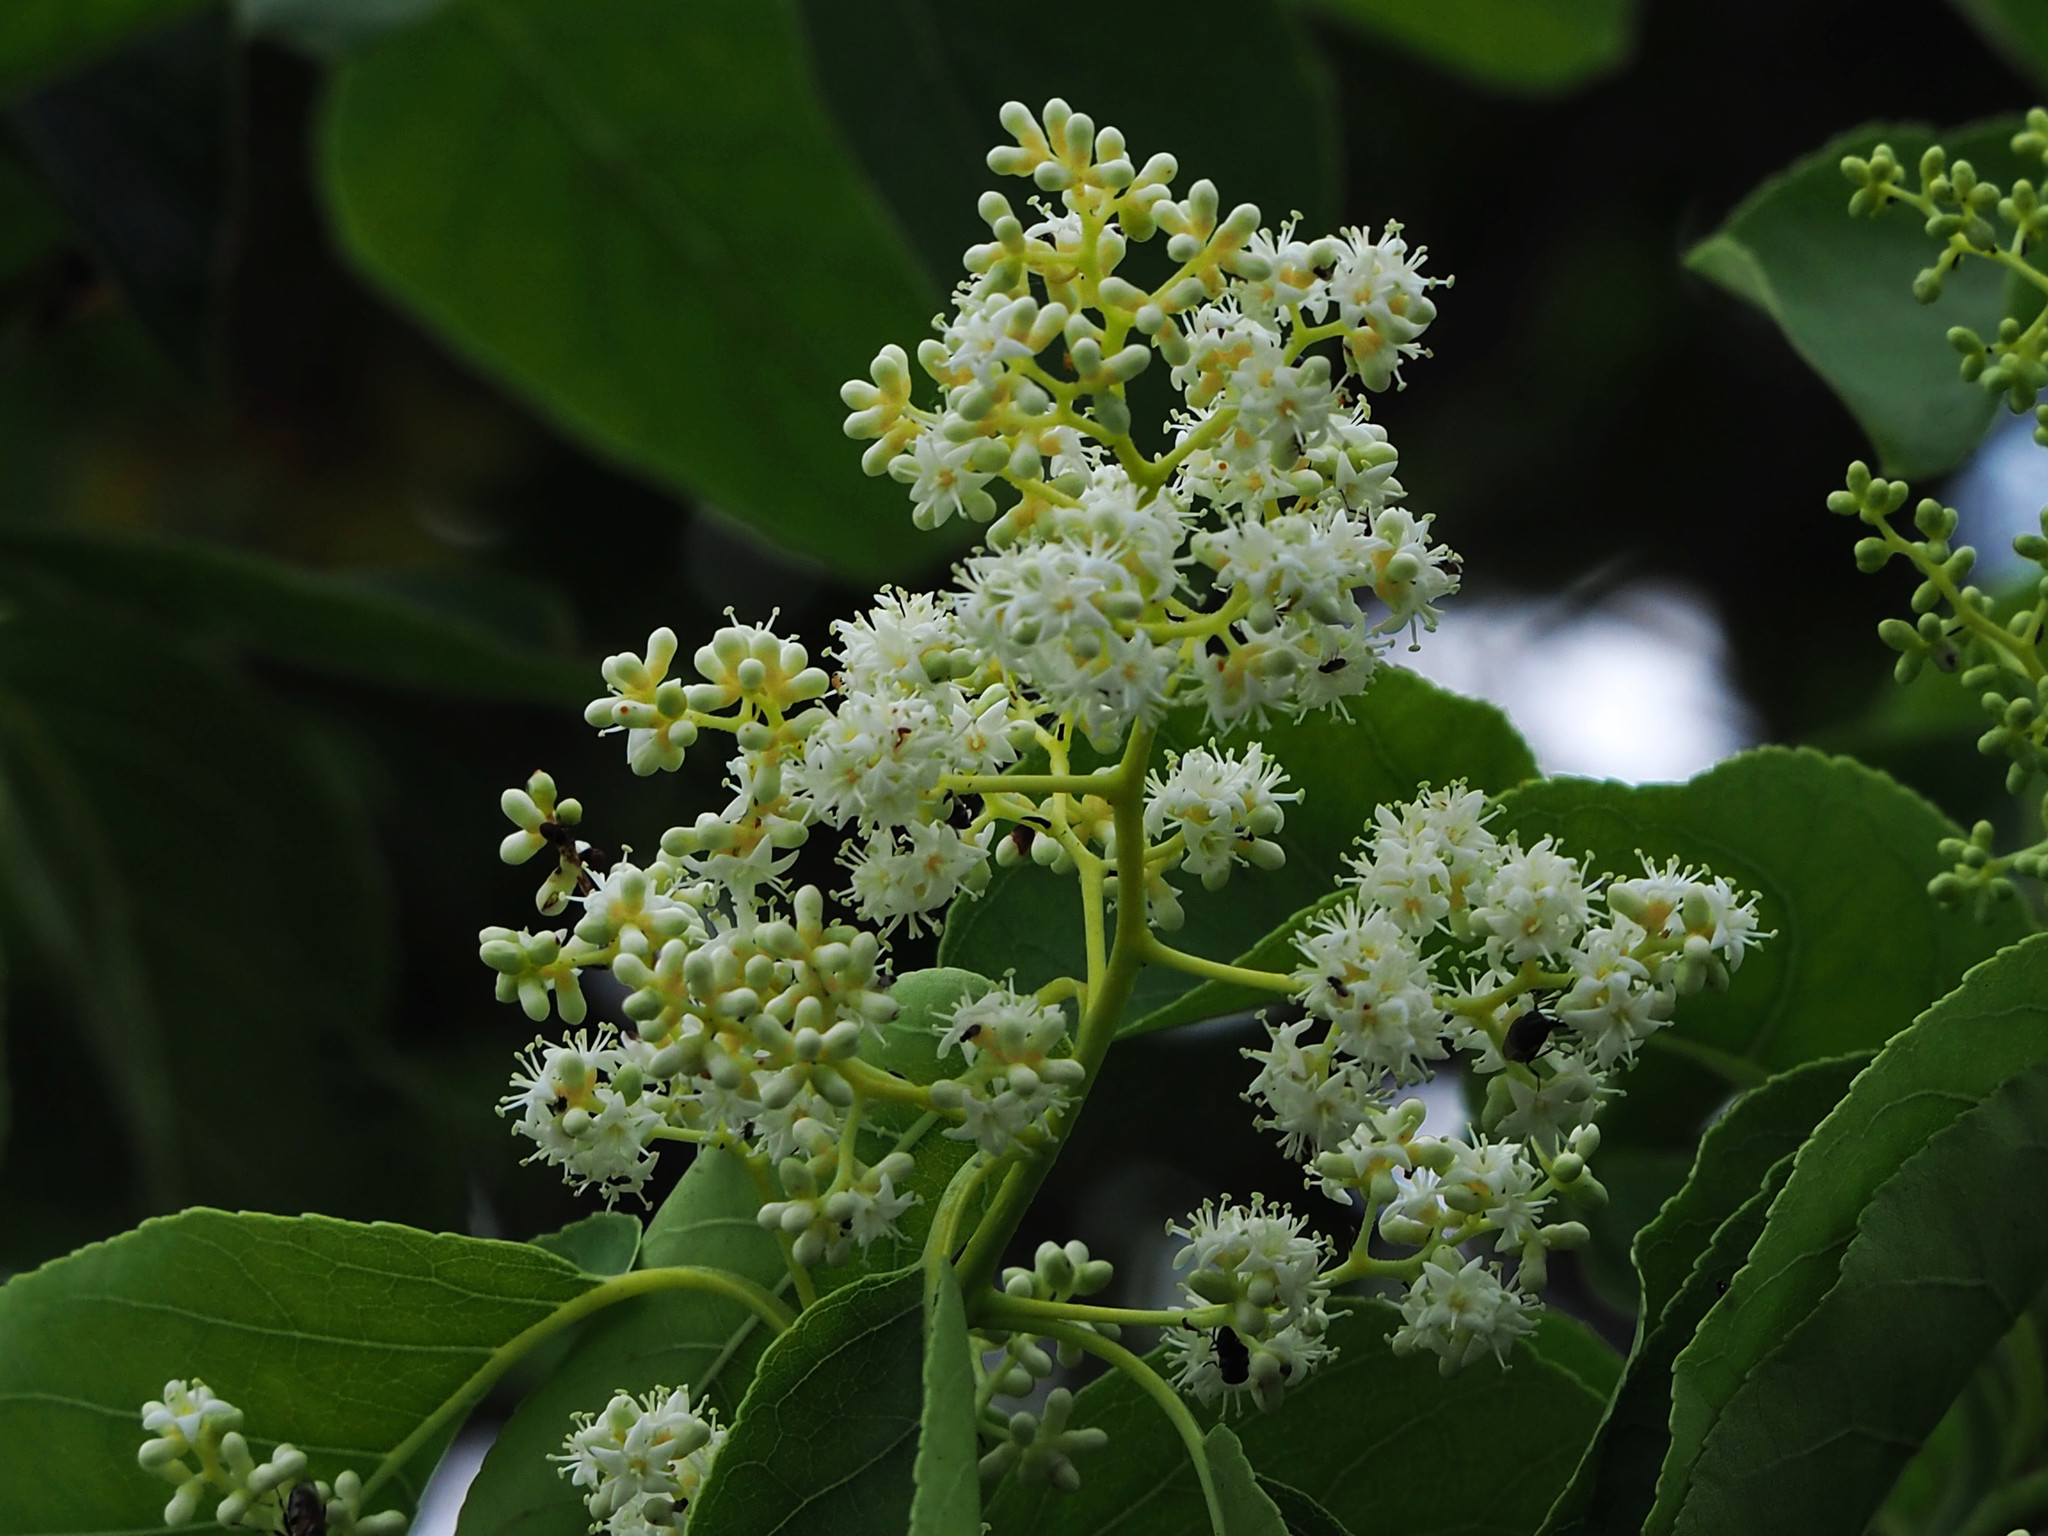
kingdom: Plantae
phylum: Tracheophyta
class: Magnoliopsida
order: Boraginales
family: Ehretiaceae
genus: Ehretia
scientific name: Ehretia acuminata
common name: Kodo wood
